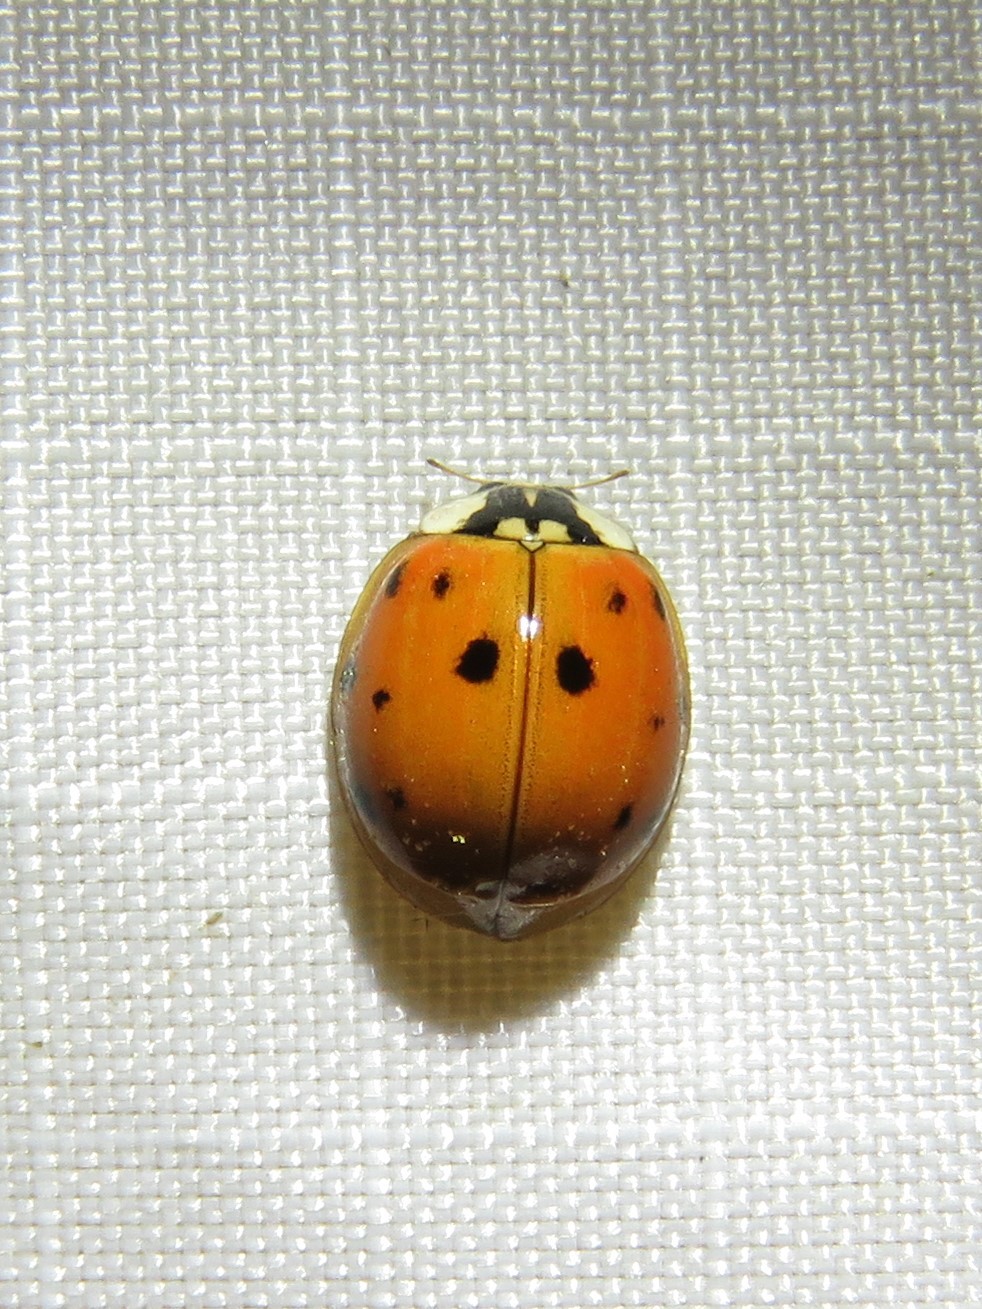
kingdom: Animalia
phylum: Arthropoda
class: Insecta
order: Coleoptera
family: Coccinellidae
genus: Harmonia
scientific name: Harmonia axyridis
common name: Harlequin ladybird
